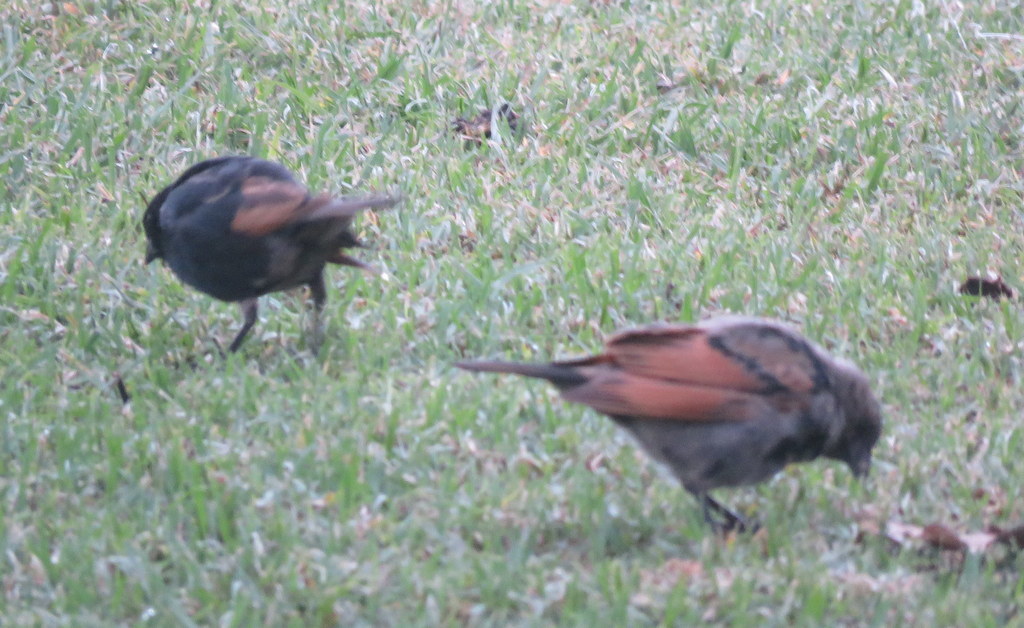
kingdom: Animalia
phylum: Chordata
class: Aves
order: Passeriformes
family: Icteridae
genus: Molothrus
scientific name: Molothrus rufoaxillaris
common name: Screaming cowbird
